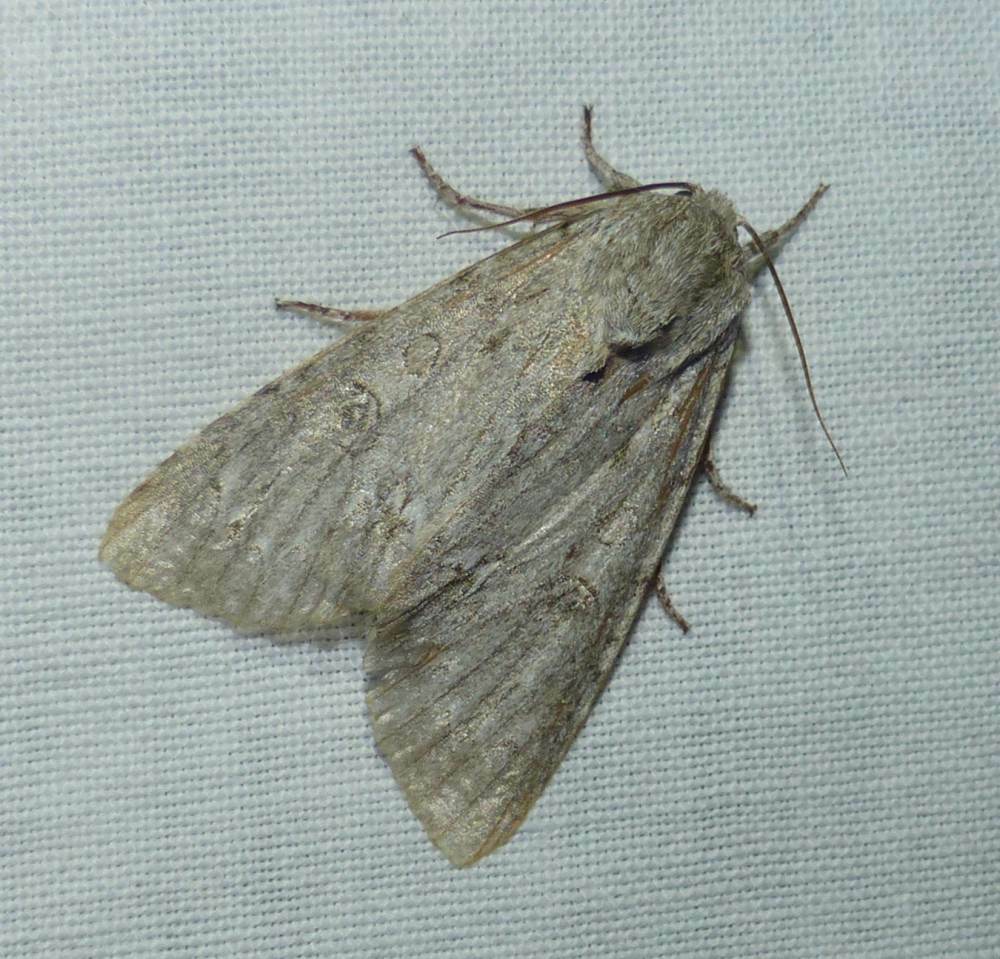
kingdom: Animalia
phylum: Arthropoda
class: Insecta
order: Lepidoptera
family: Noctuidae
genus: Acronicta
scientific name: Acronicta americana
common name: American dagger
